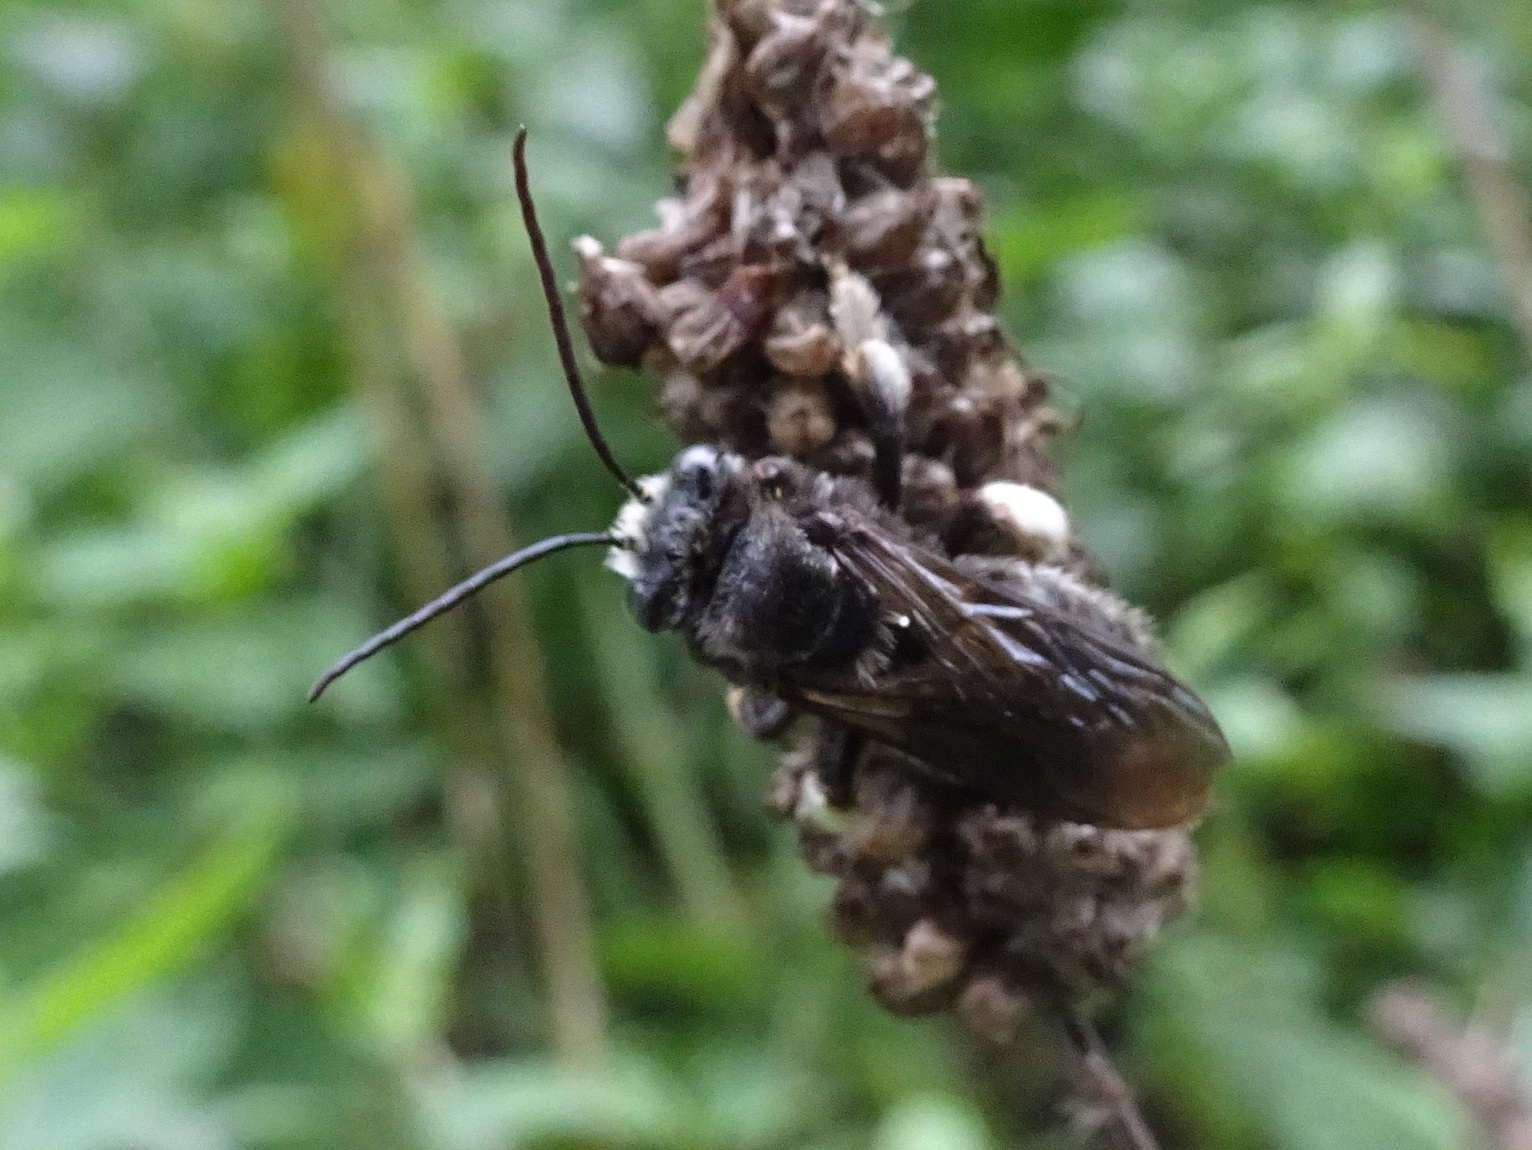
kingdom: Animalia
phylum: Arthropoda
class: Insecta
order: Hymenoptera
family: Apidae
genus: Melissodes
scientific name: Melissodes bimaculatus
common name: Two-spotted long-horned bee
